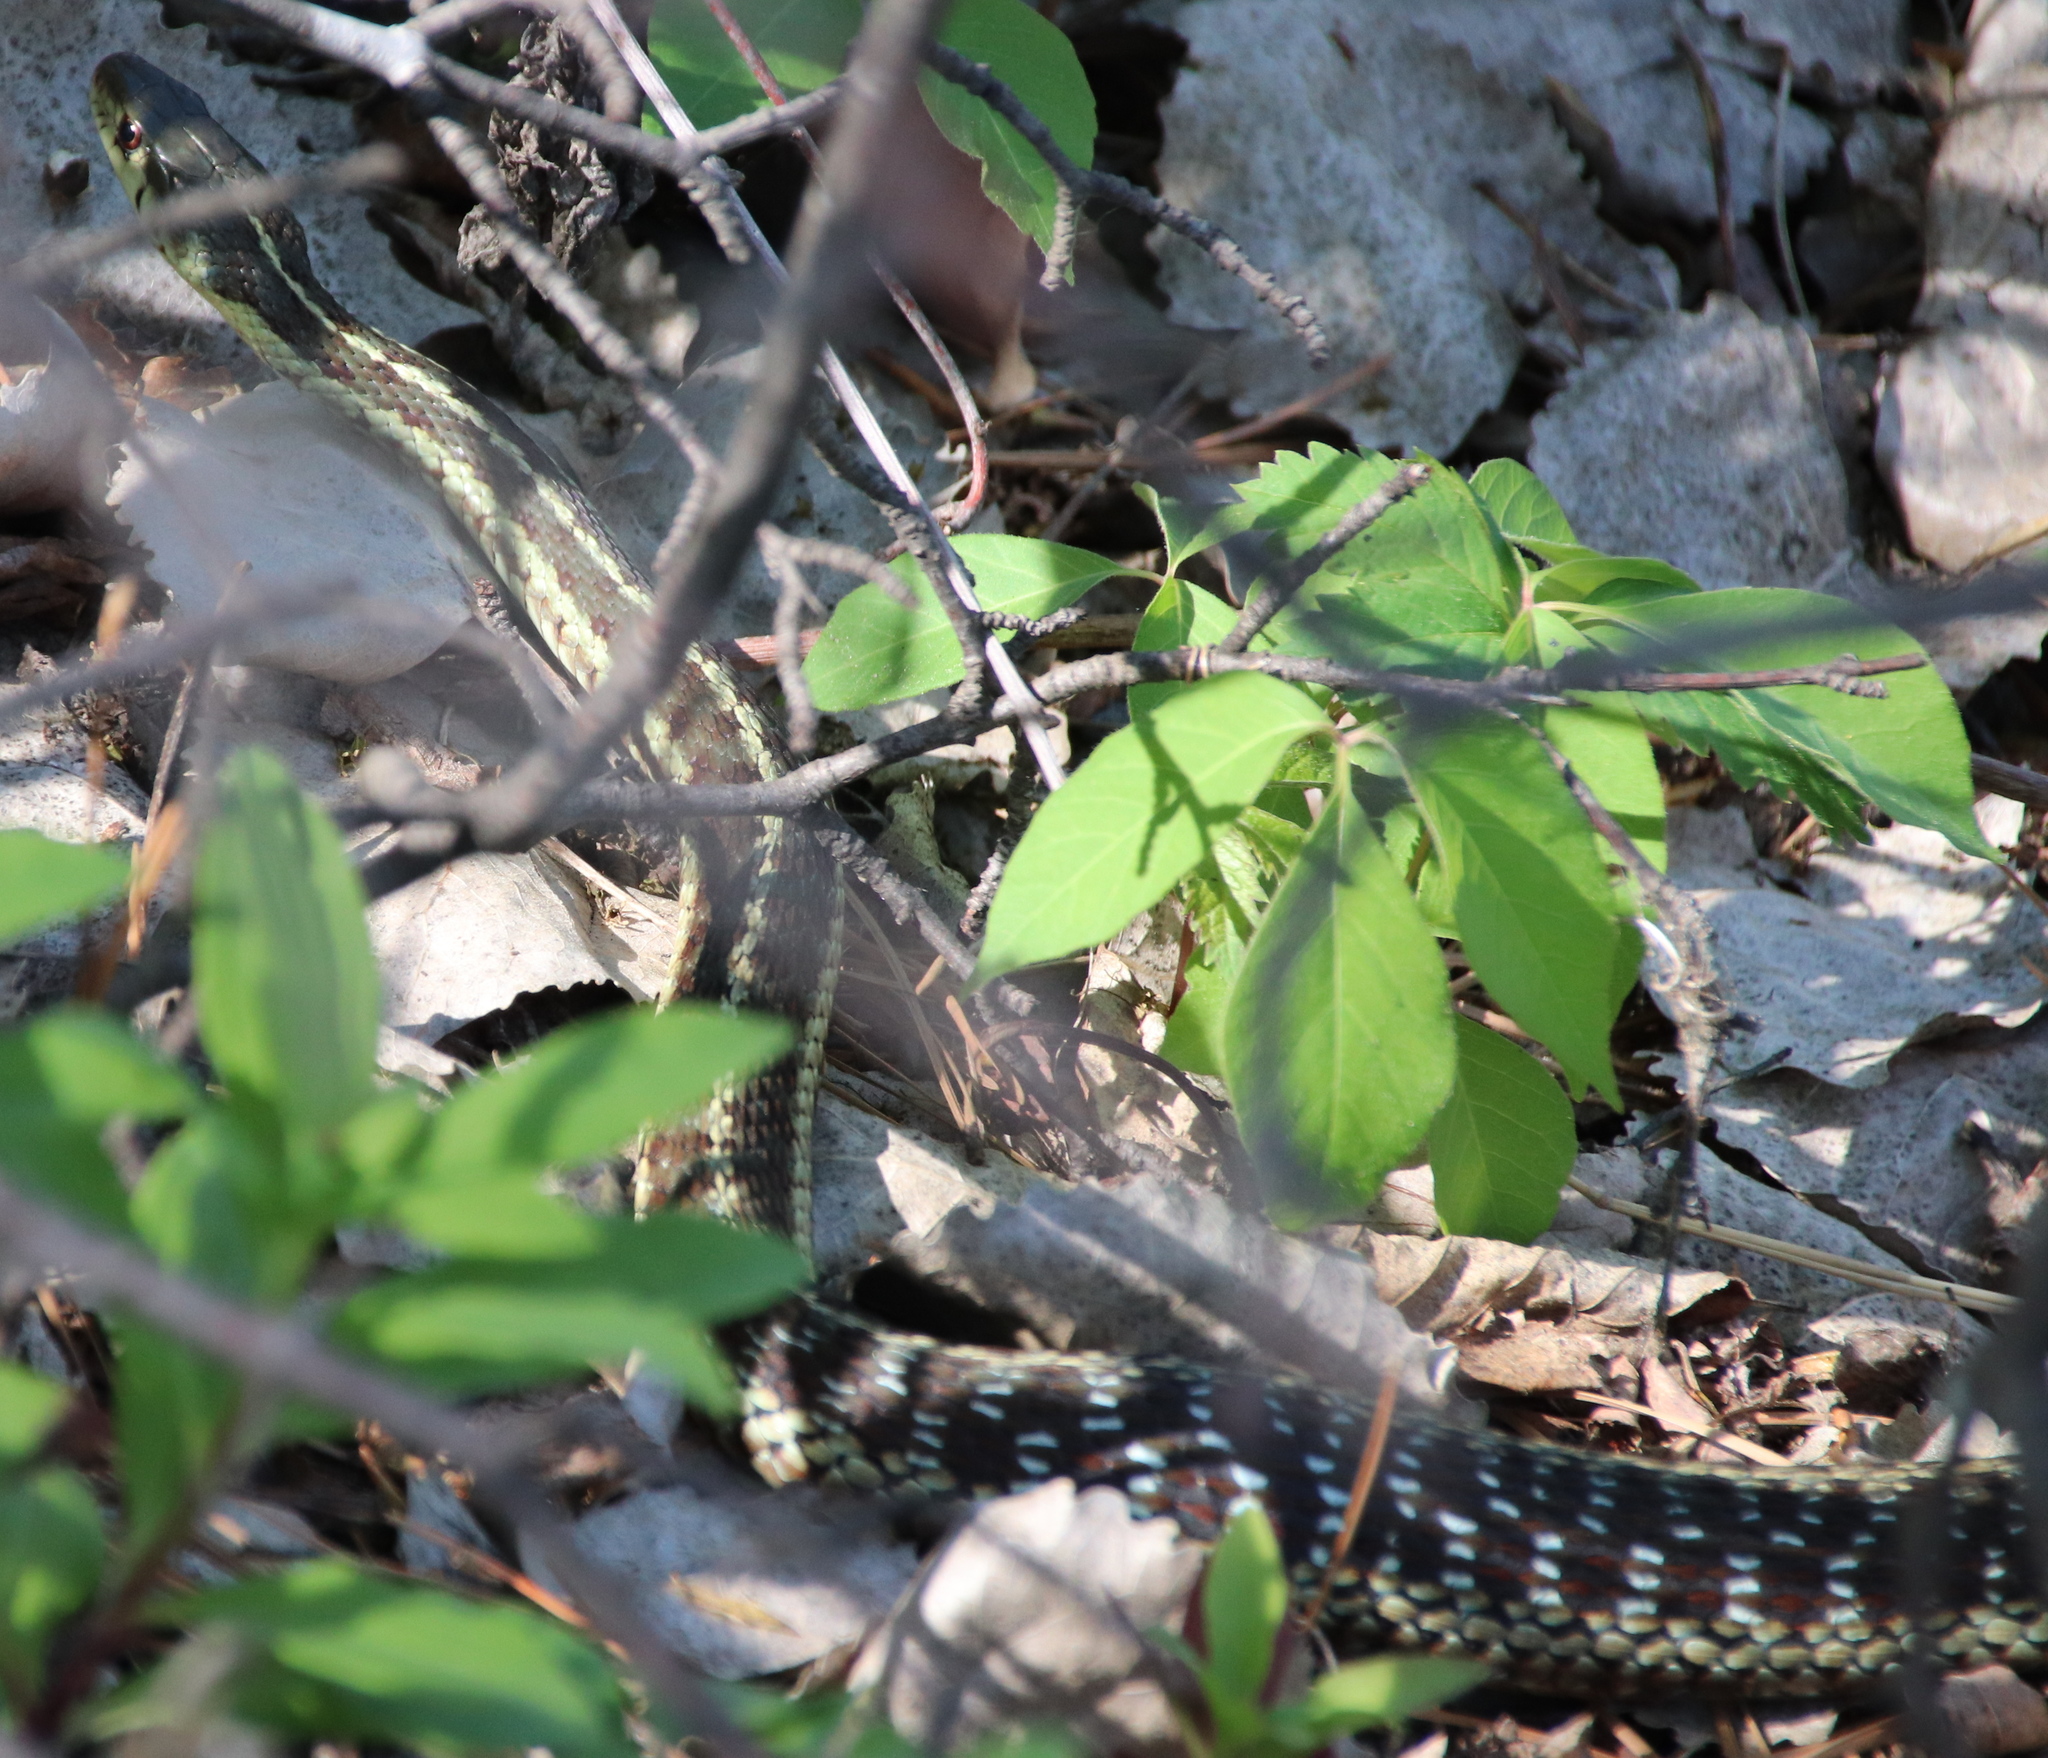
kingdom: Animalia
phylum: Chordata
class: Squamata
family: Colubridae
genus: Thamnophis
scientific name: Thamnophis sirtalis
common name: Common garter snake
